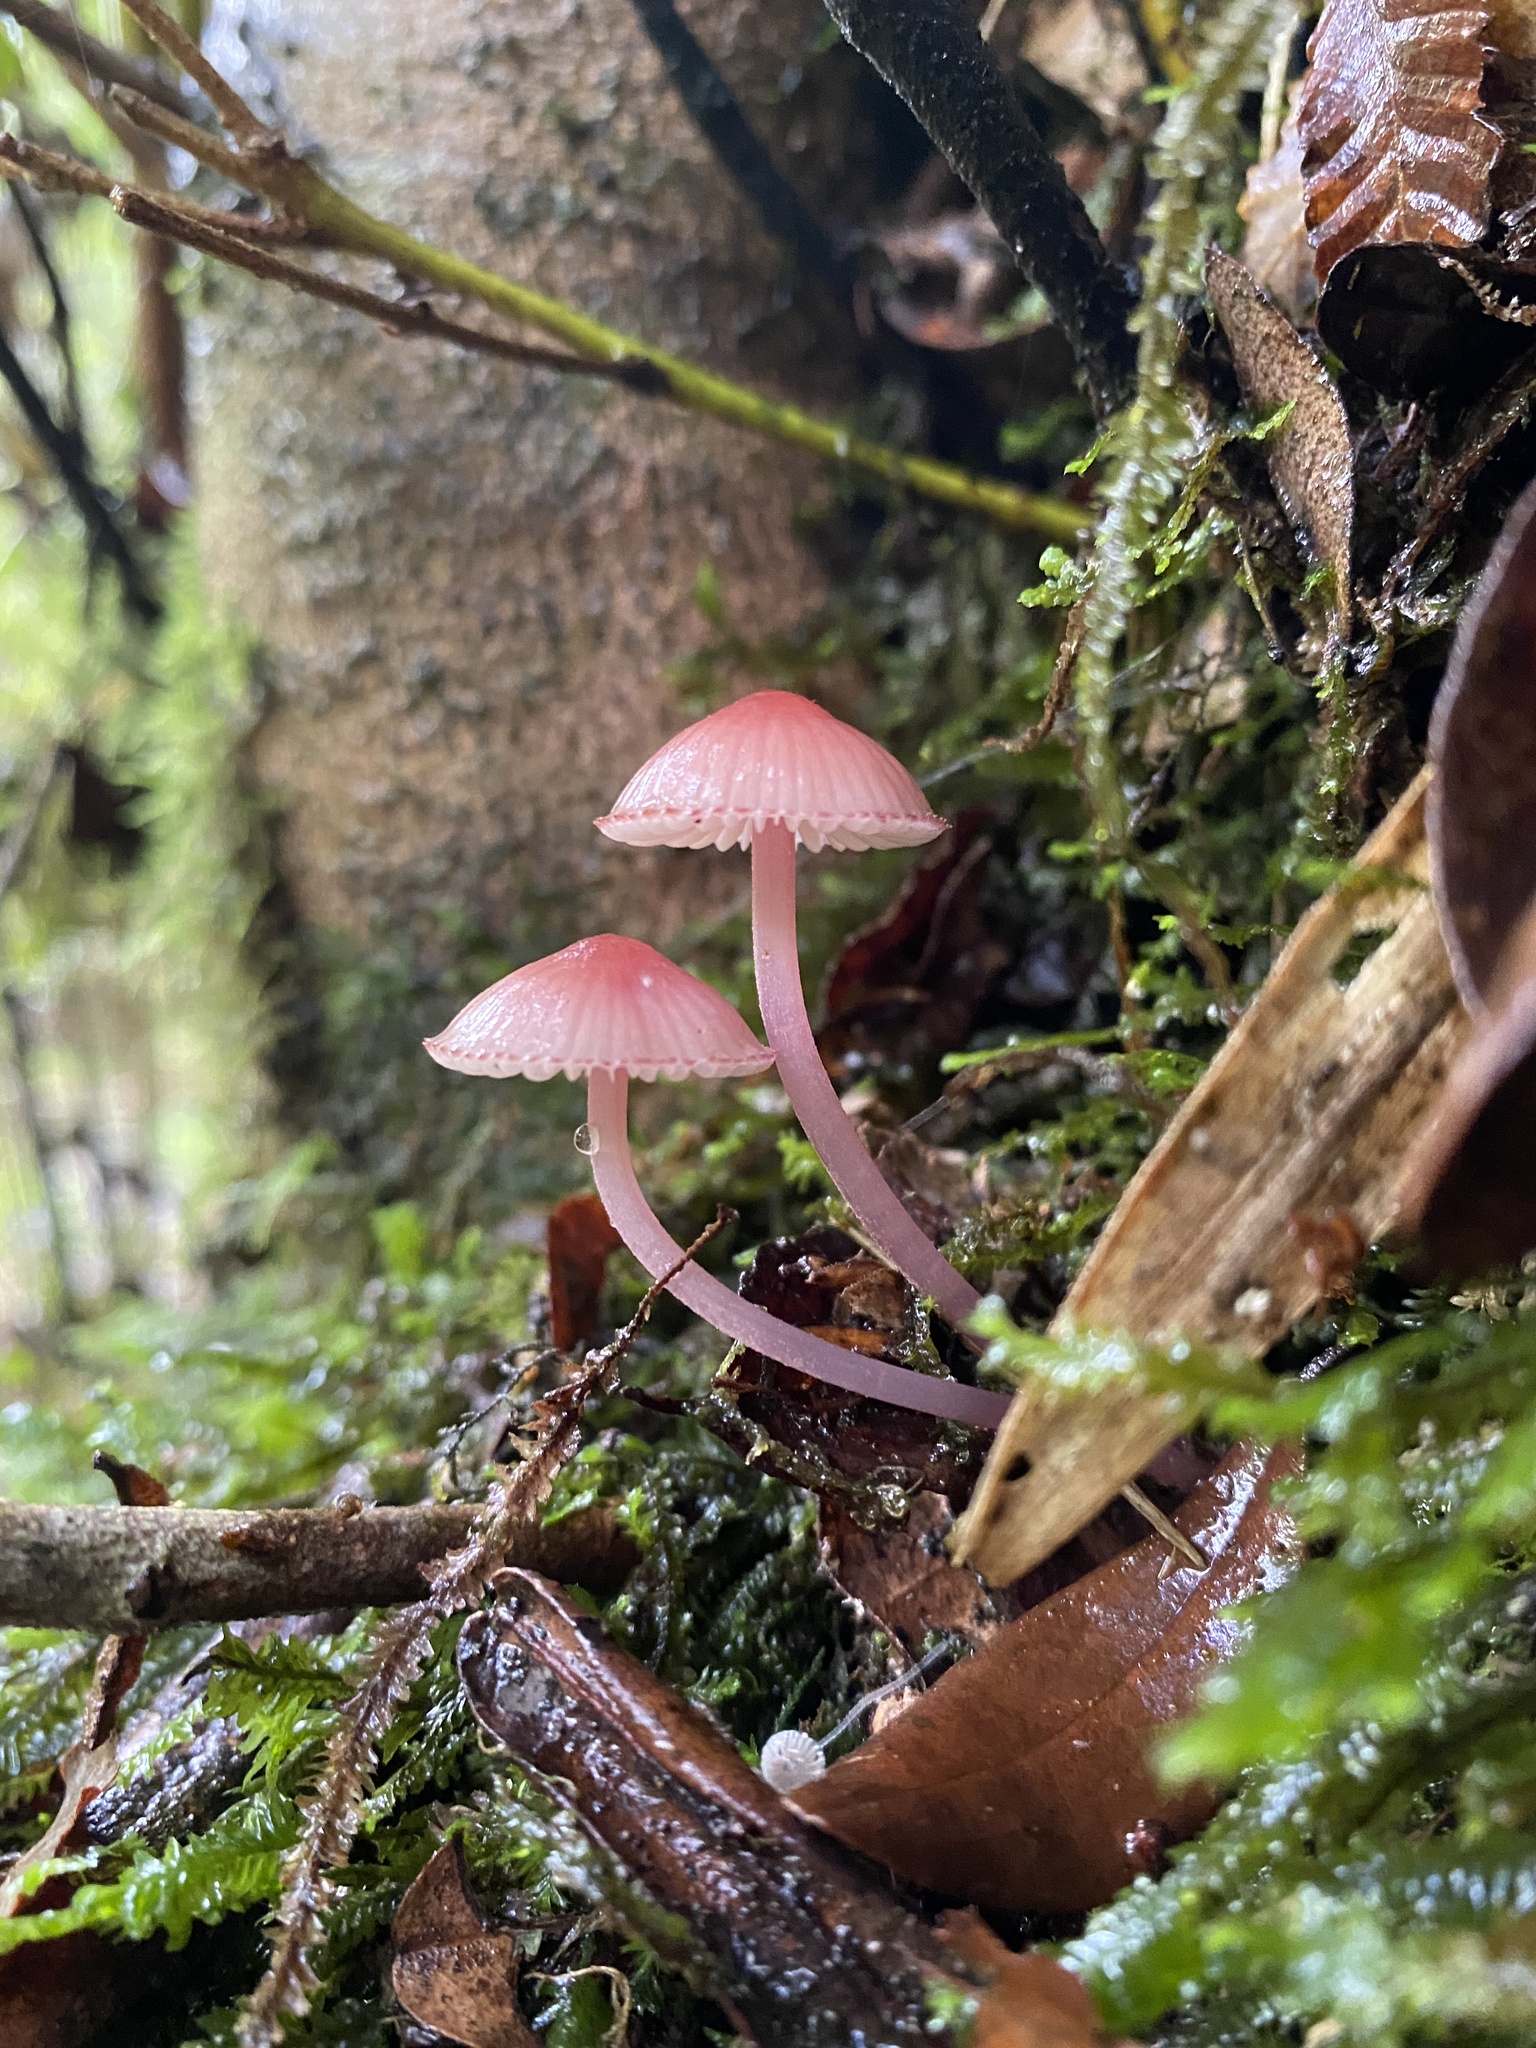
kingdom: Fungi
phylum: Basidiomycota
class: Agaricomycetes
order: Agaricales
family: Mycenaceae
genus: Mycena
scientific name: Mycena haematopus
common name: Burgundydrop bonnet
